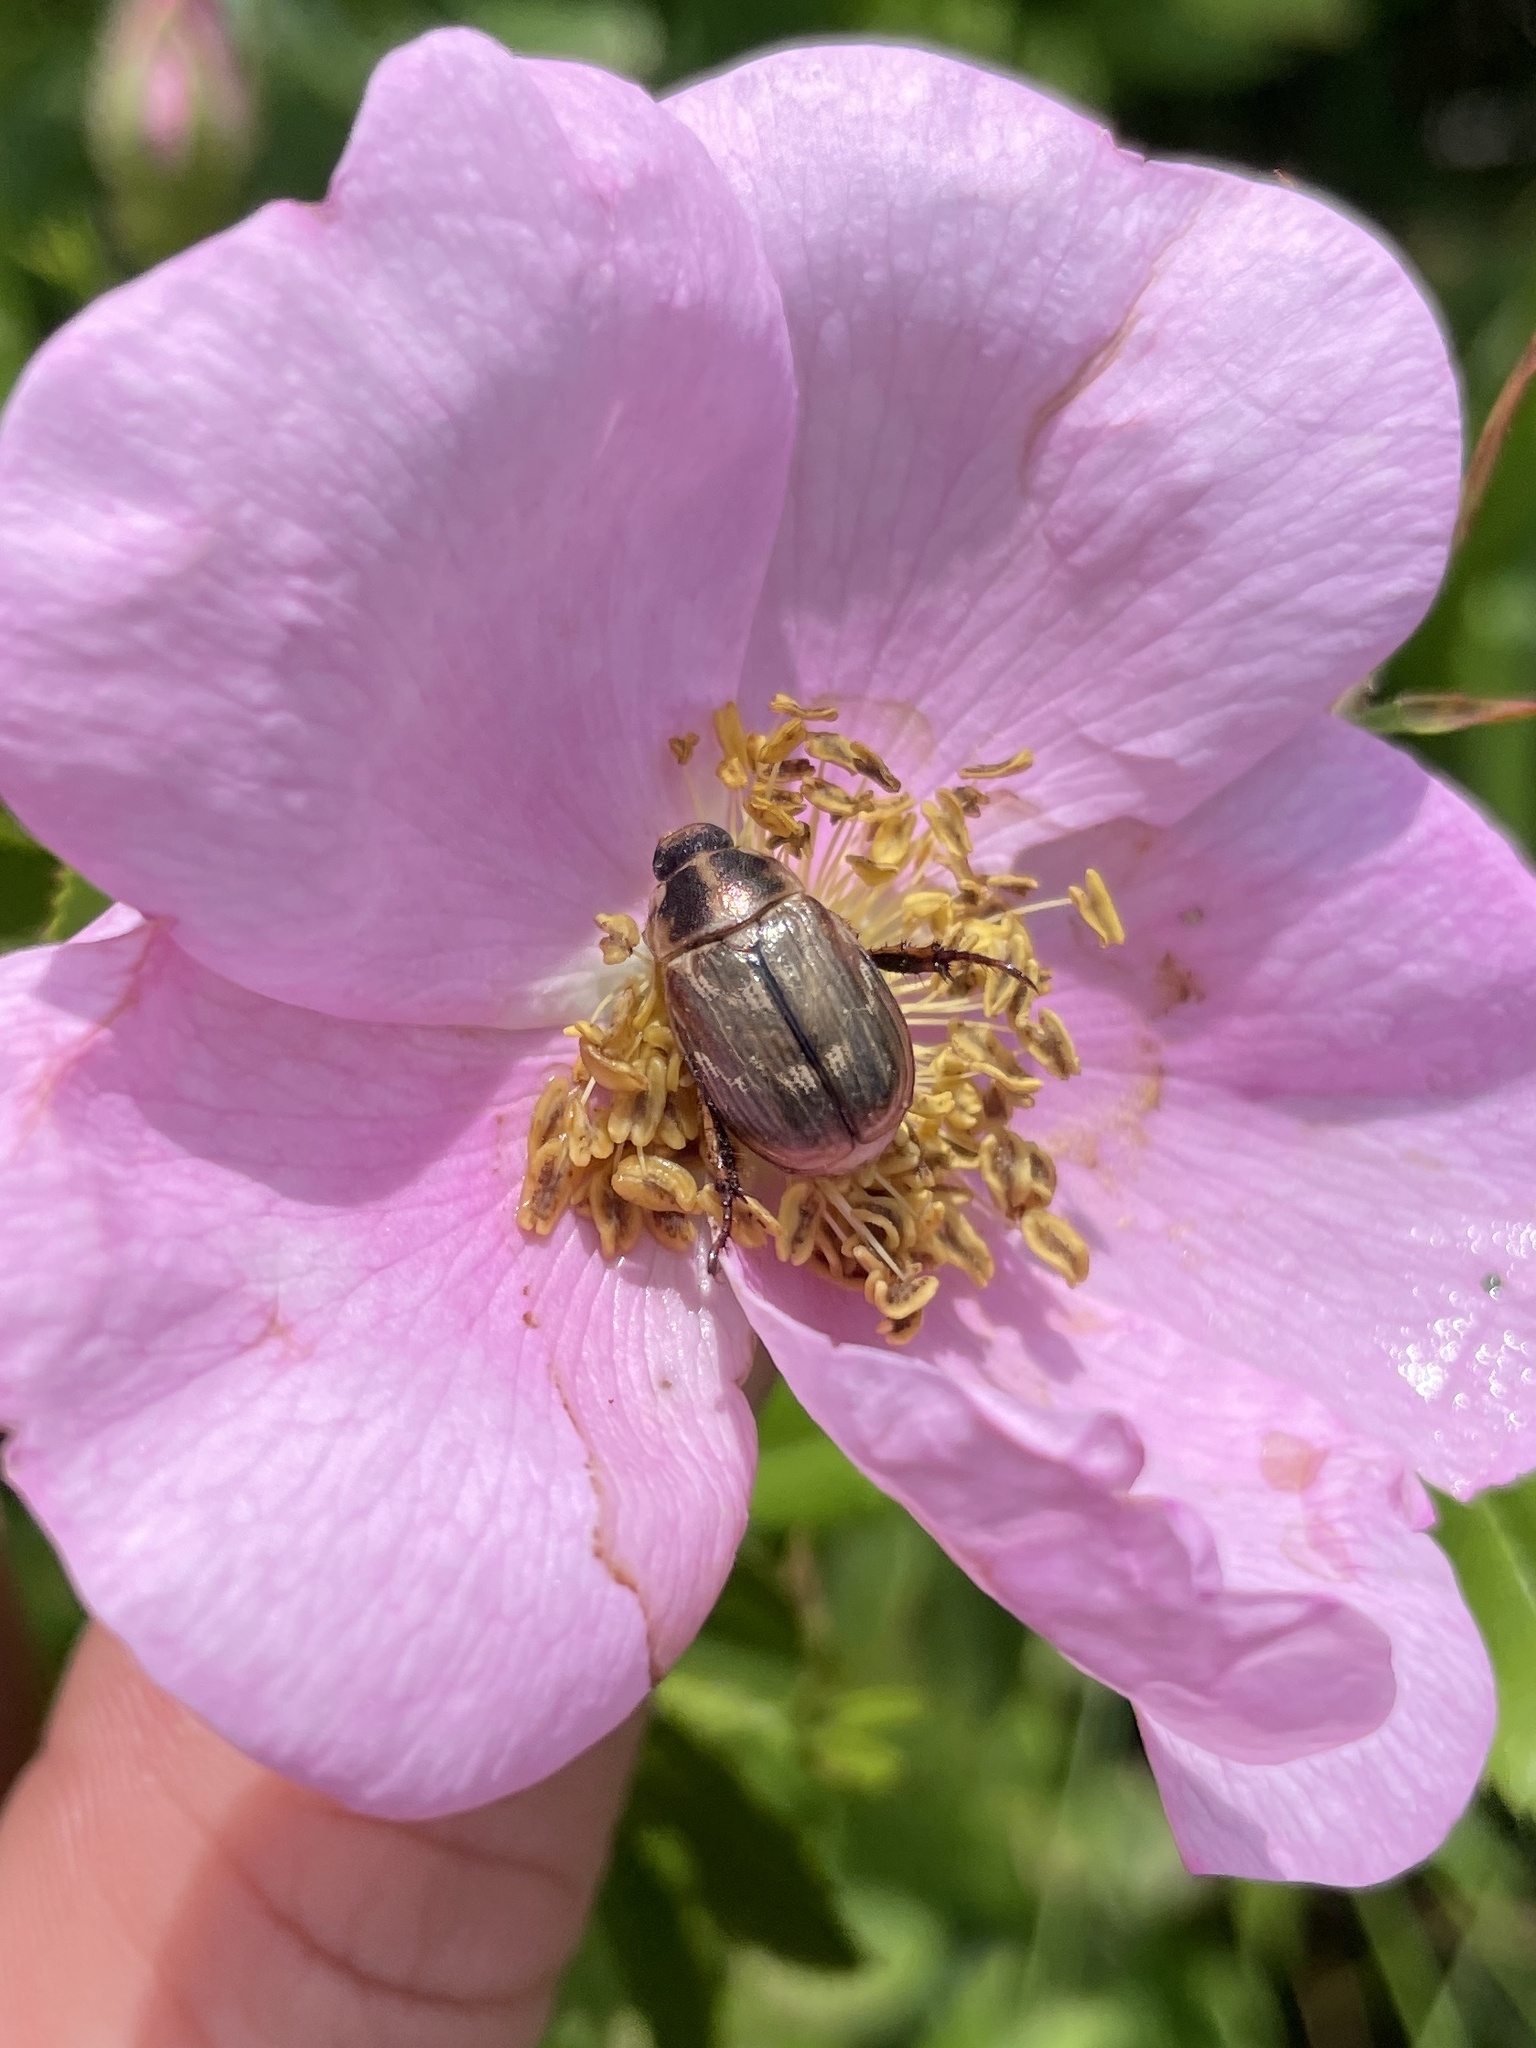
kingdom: Animalia
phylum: Arthropoda
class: Insecta
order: Coleoptera
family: Scarabaeidae
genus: Exomala
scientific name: Exomala orientalis
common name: Oriental beetle
